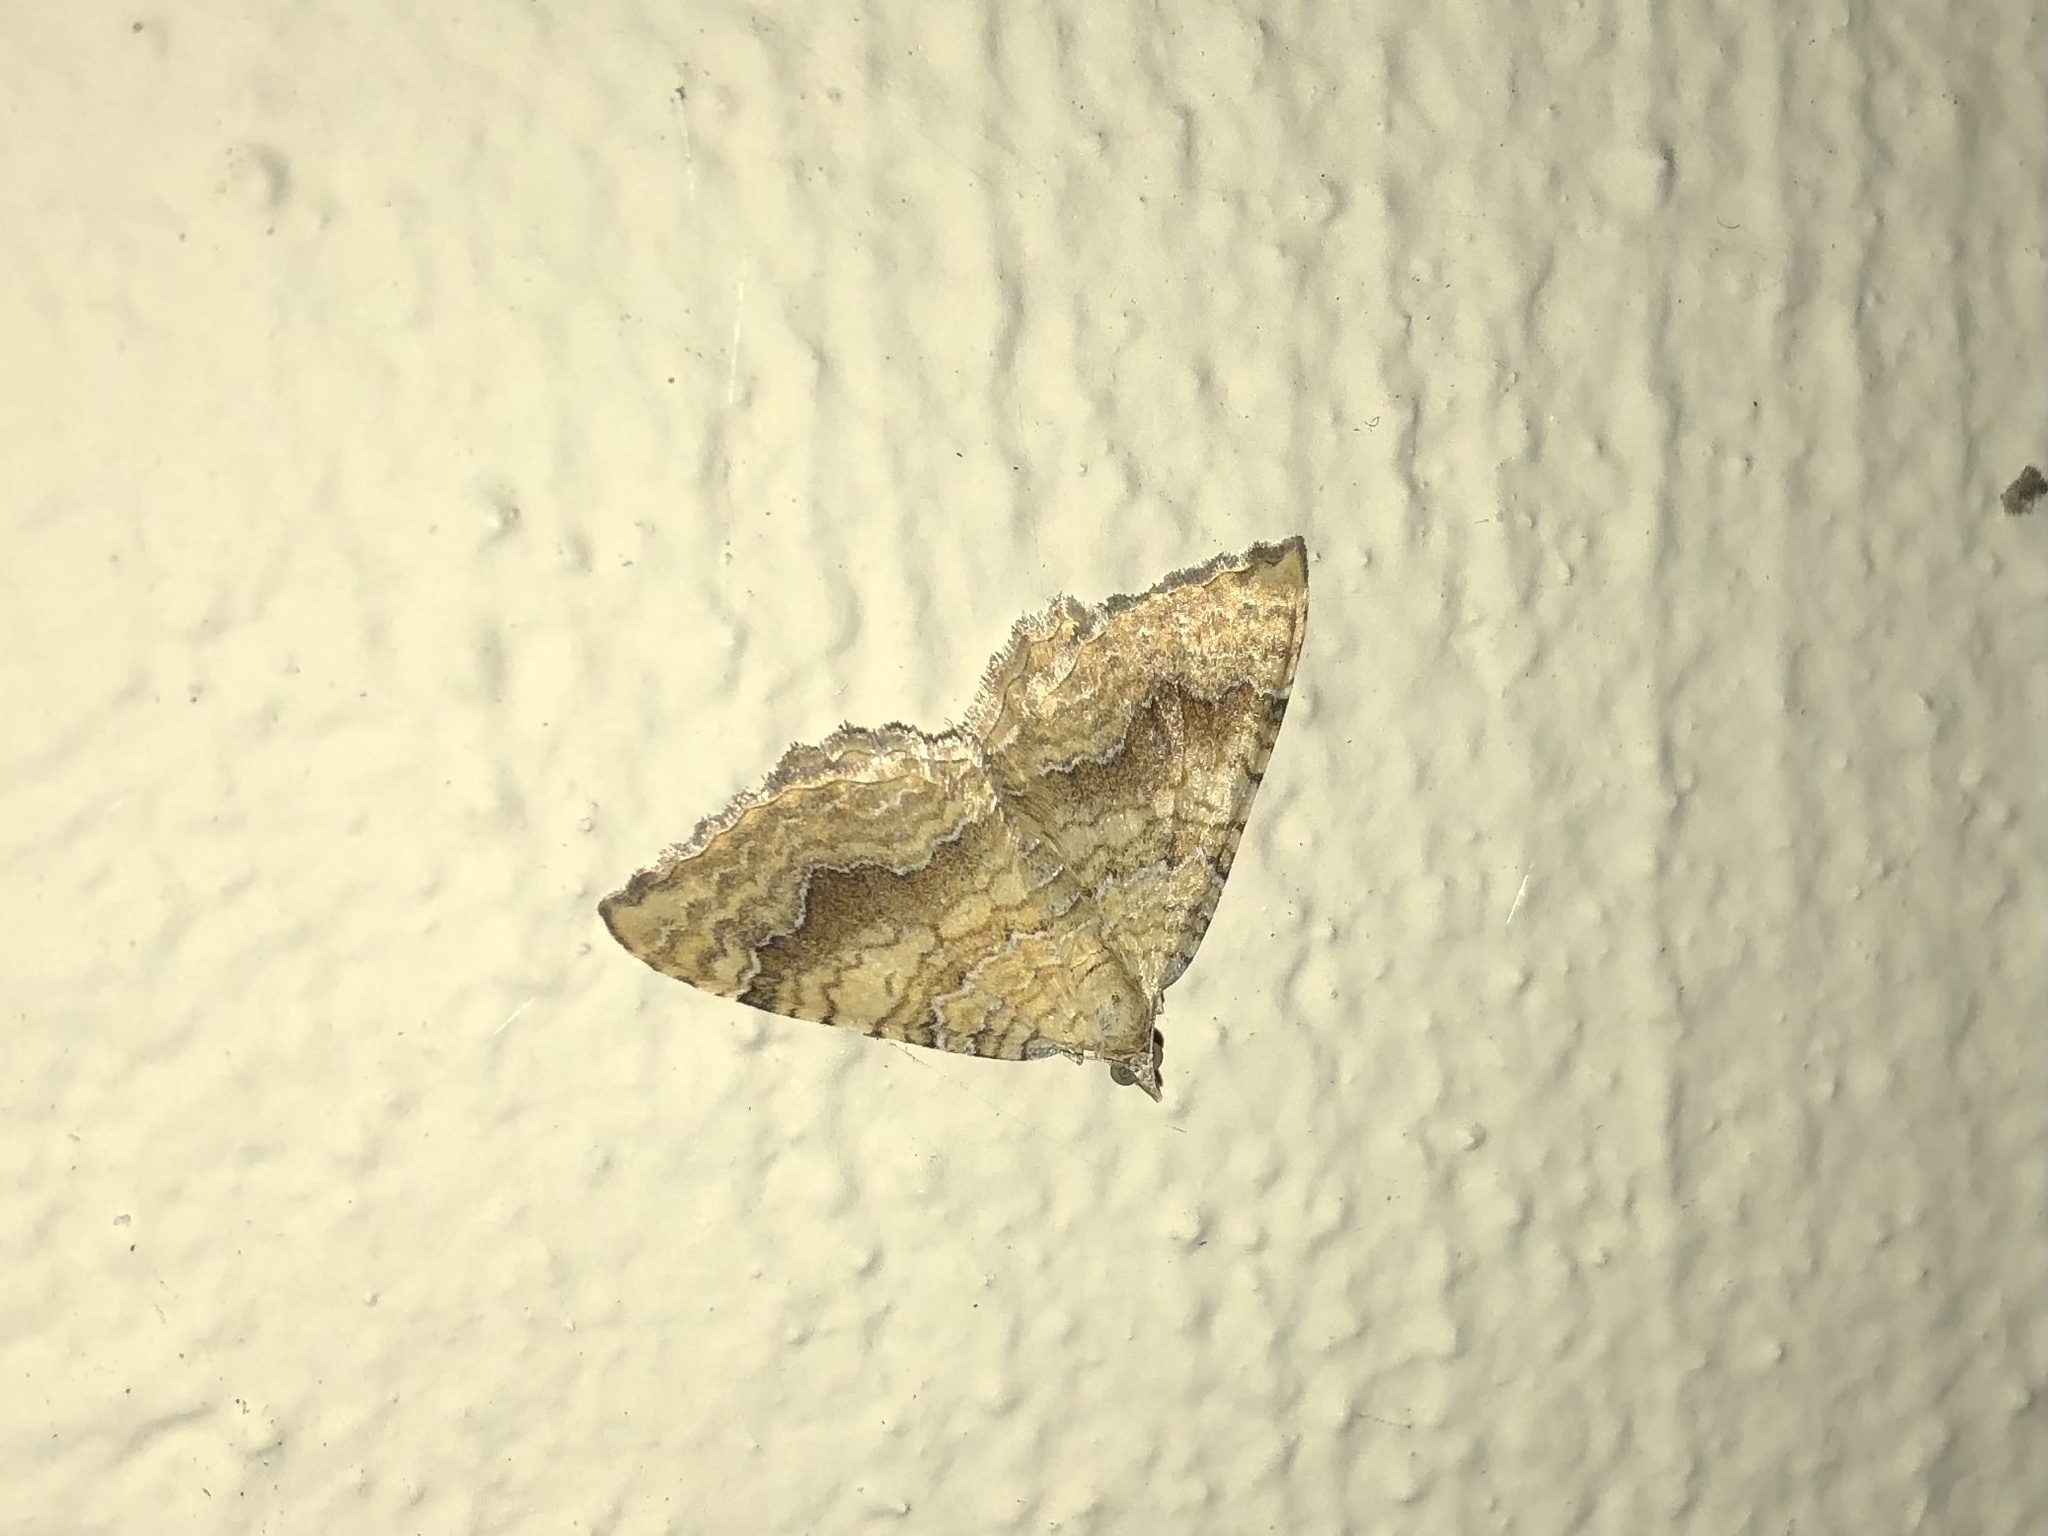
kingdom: Animalia
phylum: Arthropoda
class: Insecta
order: Lepidoptera
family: Geometridae
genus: Camptogramma
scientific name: Camptogramma bilineata
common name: Yellow shell
